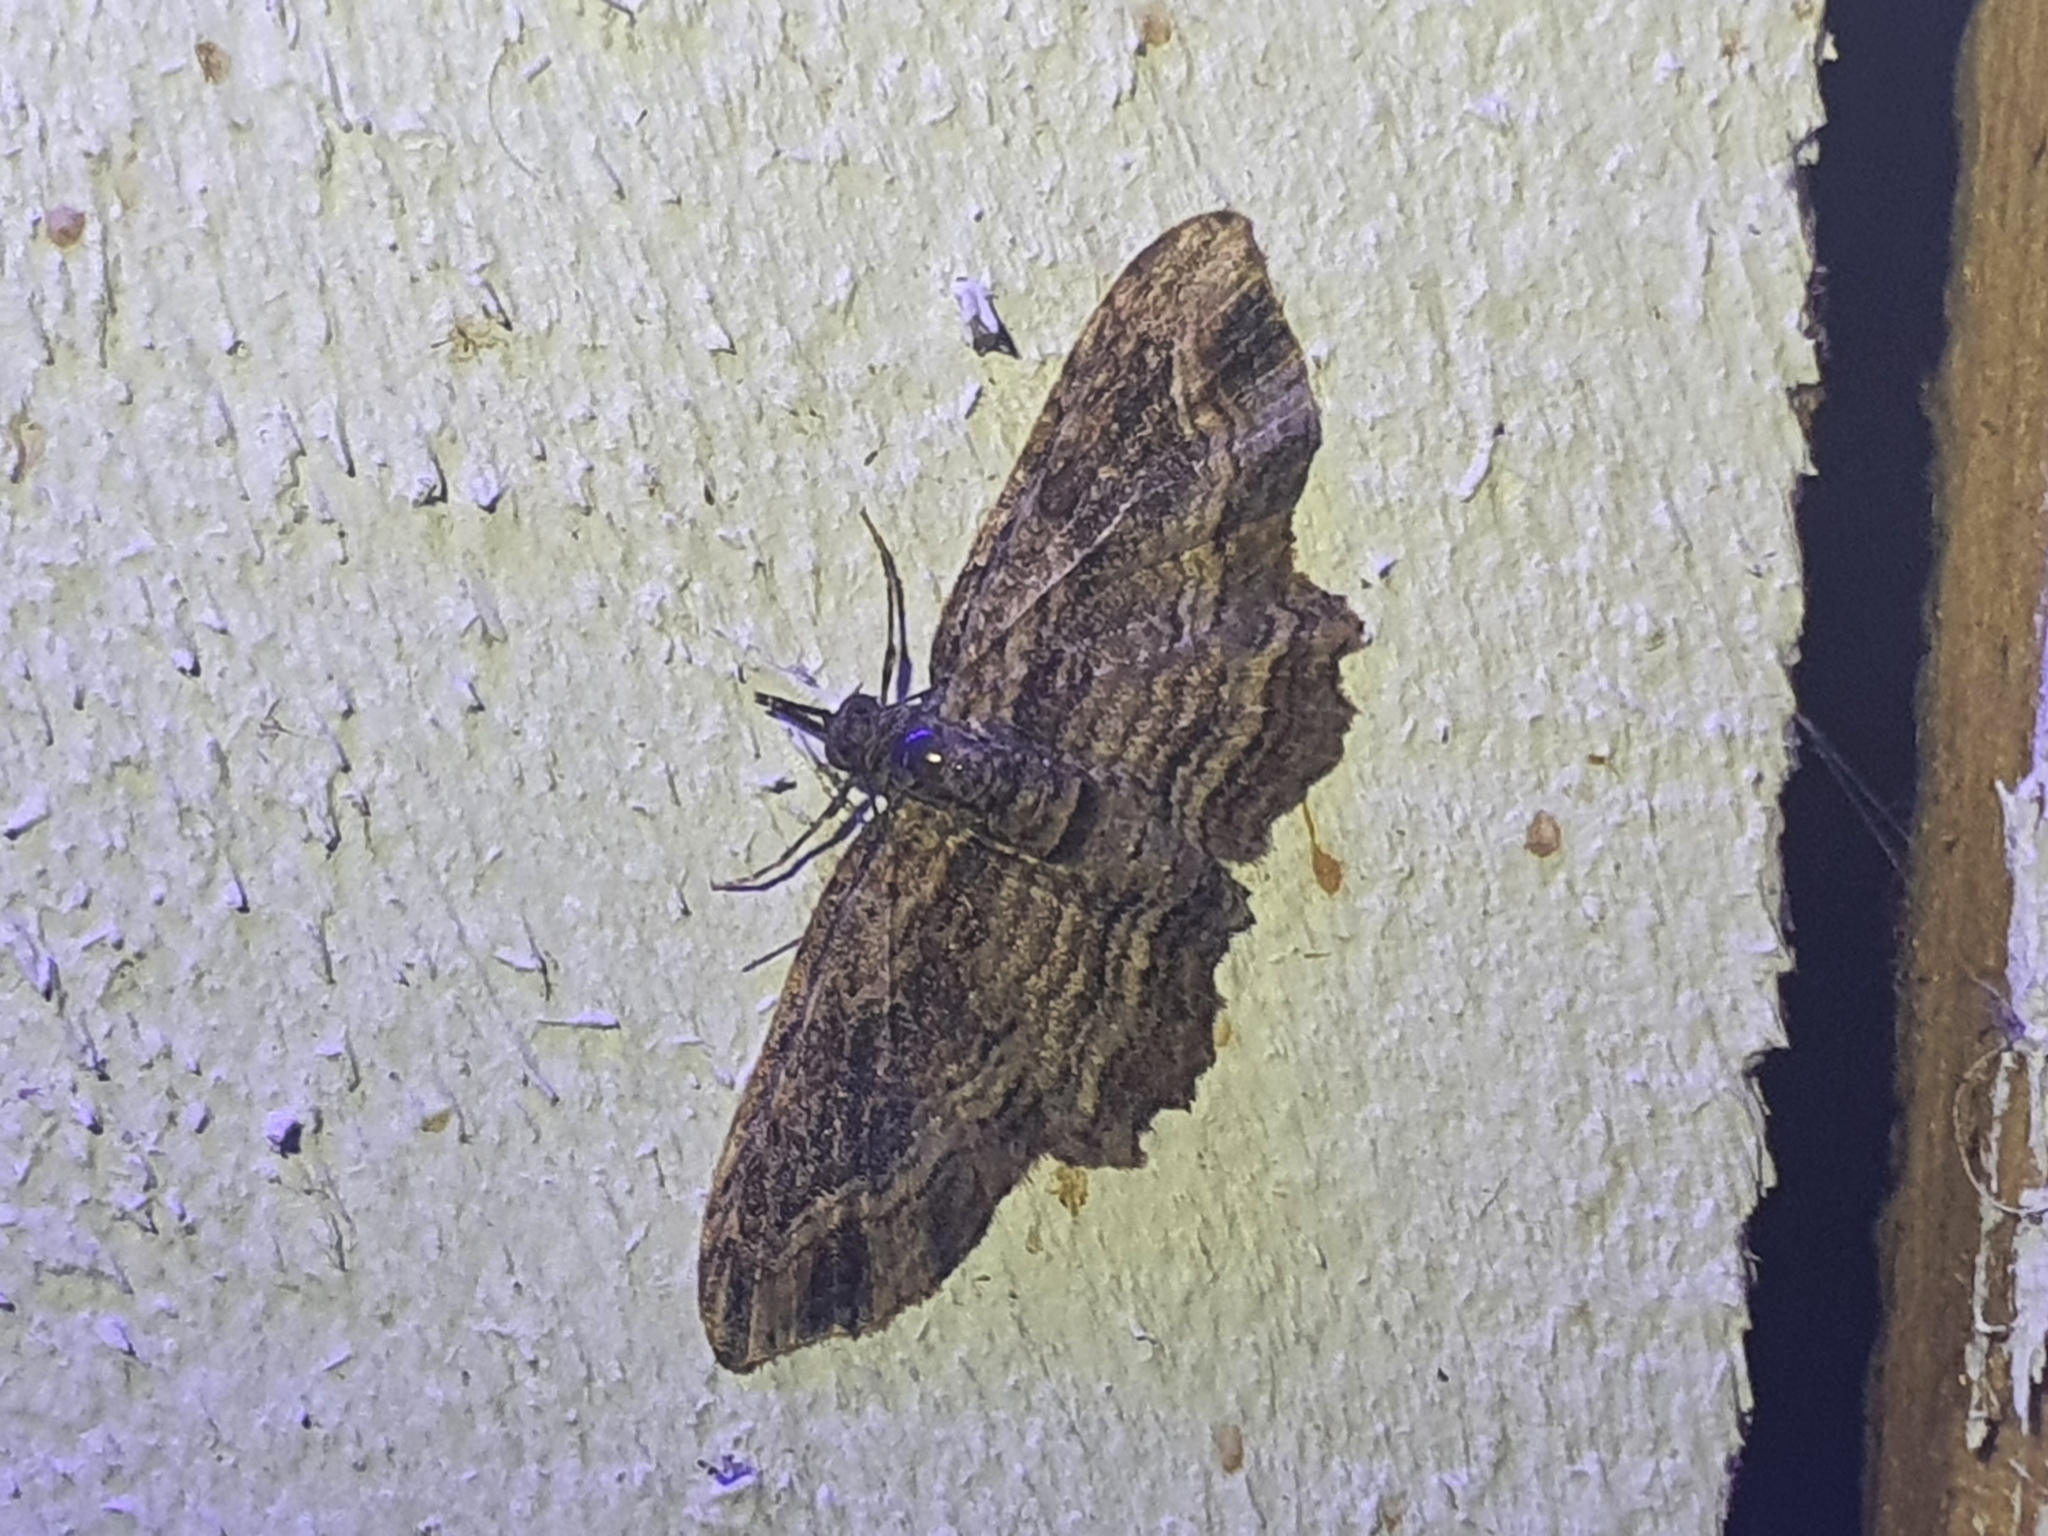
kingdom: Animalia
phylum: Arthropoda
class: Insecta
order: Lepidoptera
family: Geometridae
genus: Chloroclystis
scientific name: Chloroclystis filata
